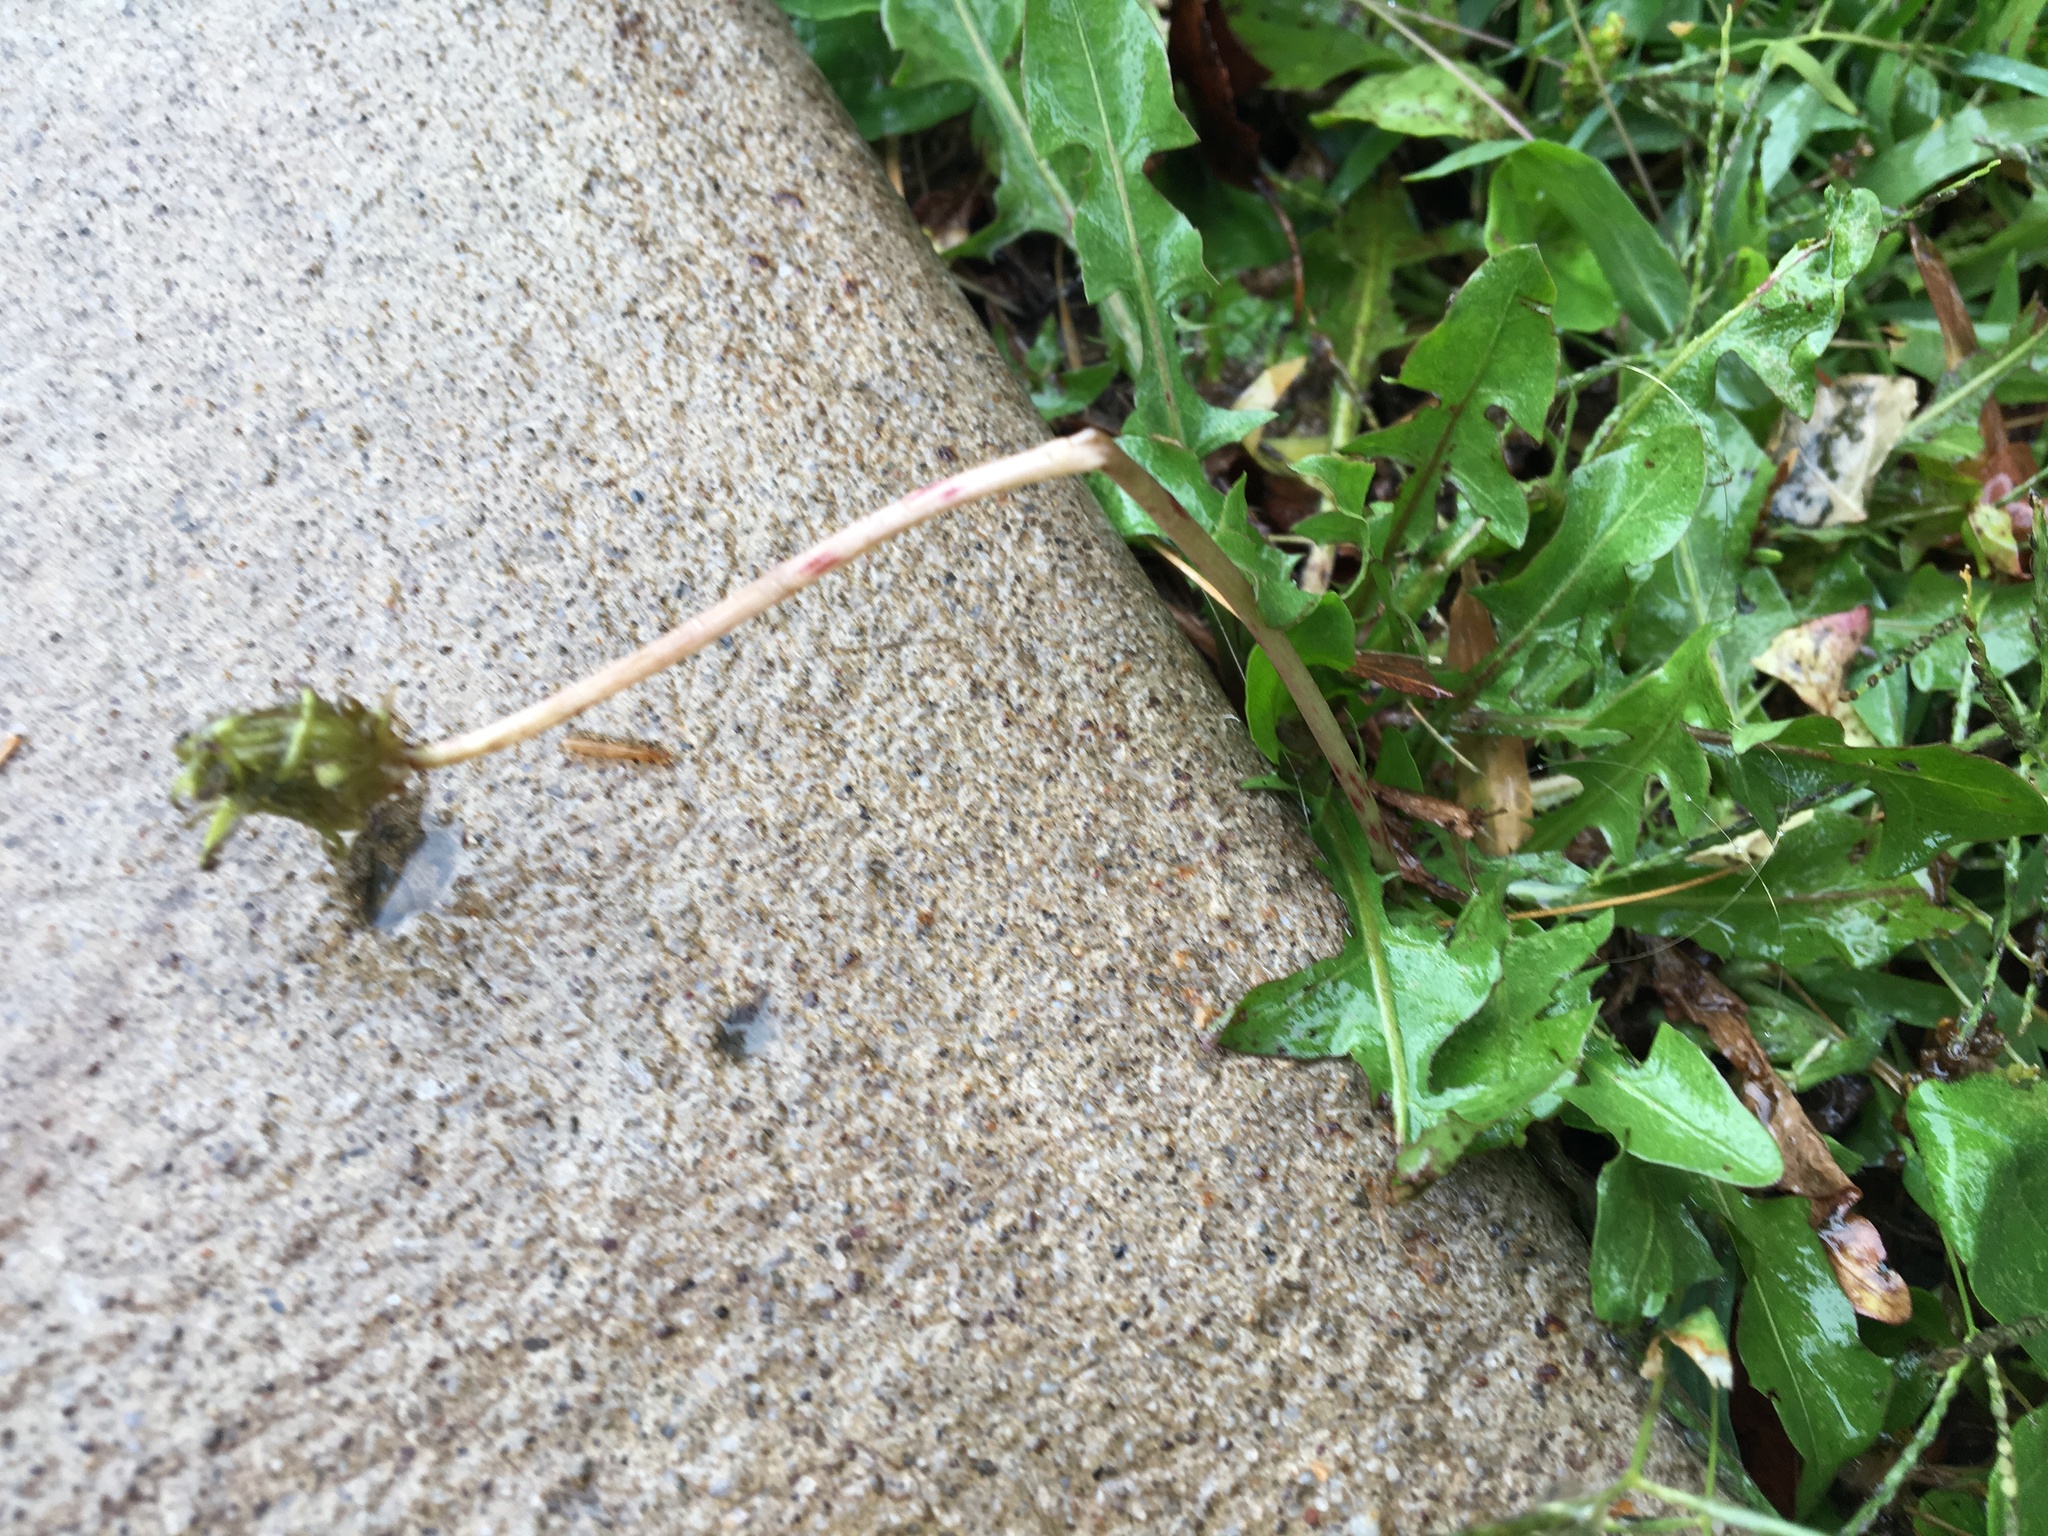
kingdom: Plantae
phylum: Tracheophyta
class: Magnoliopsida
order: Asterales
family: Asteraceae
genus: Taraxacum
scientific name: Taraxacum officinale
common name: Common dandelion
